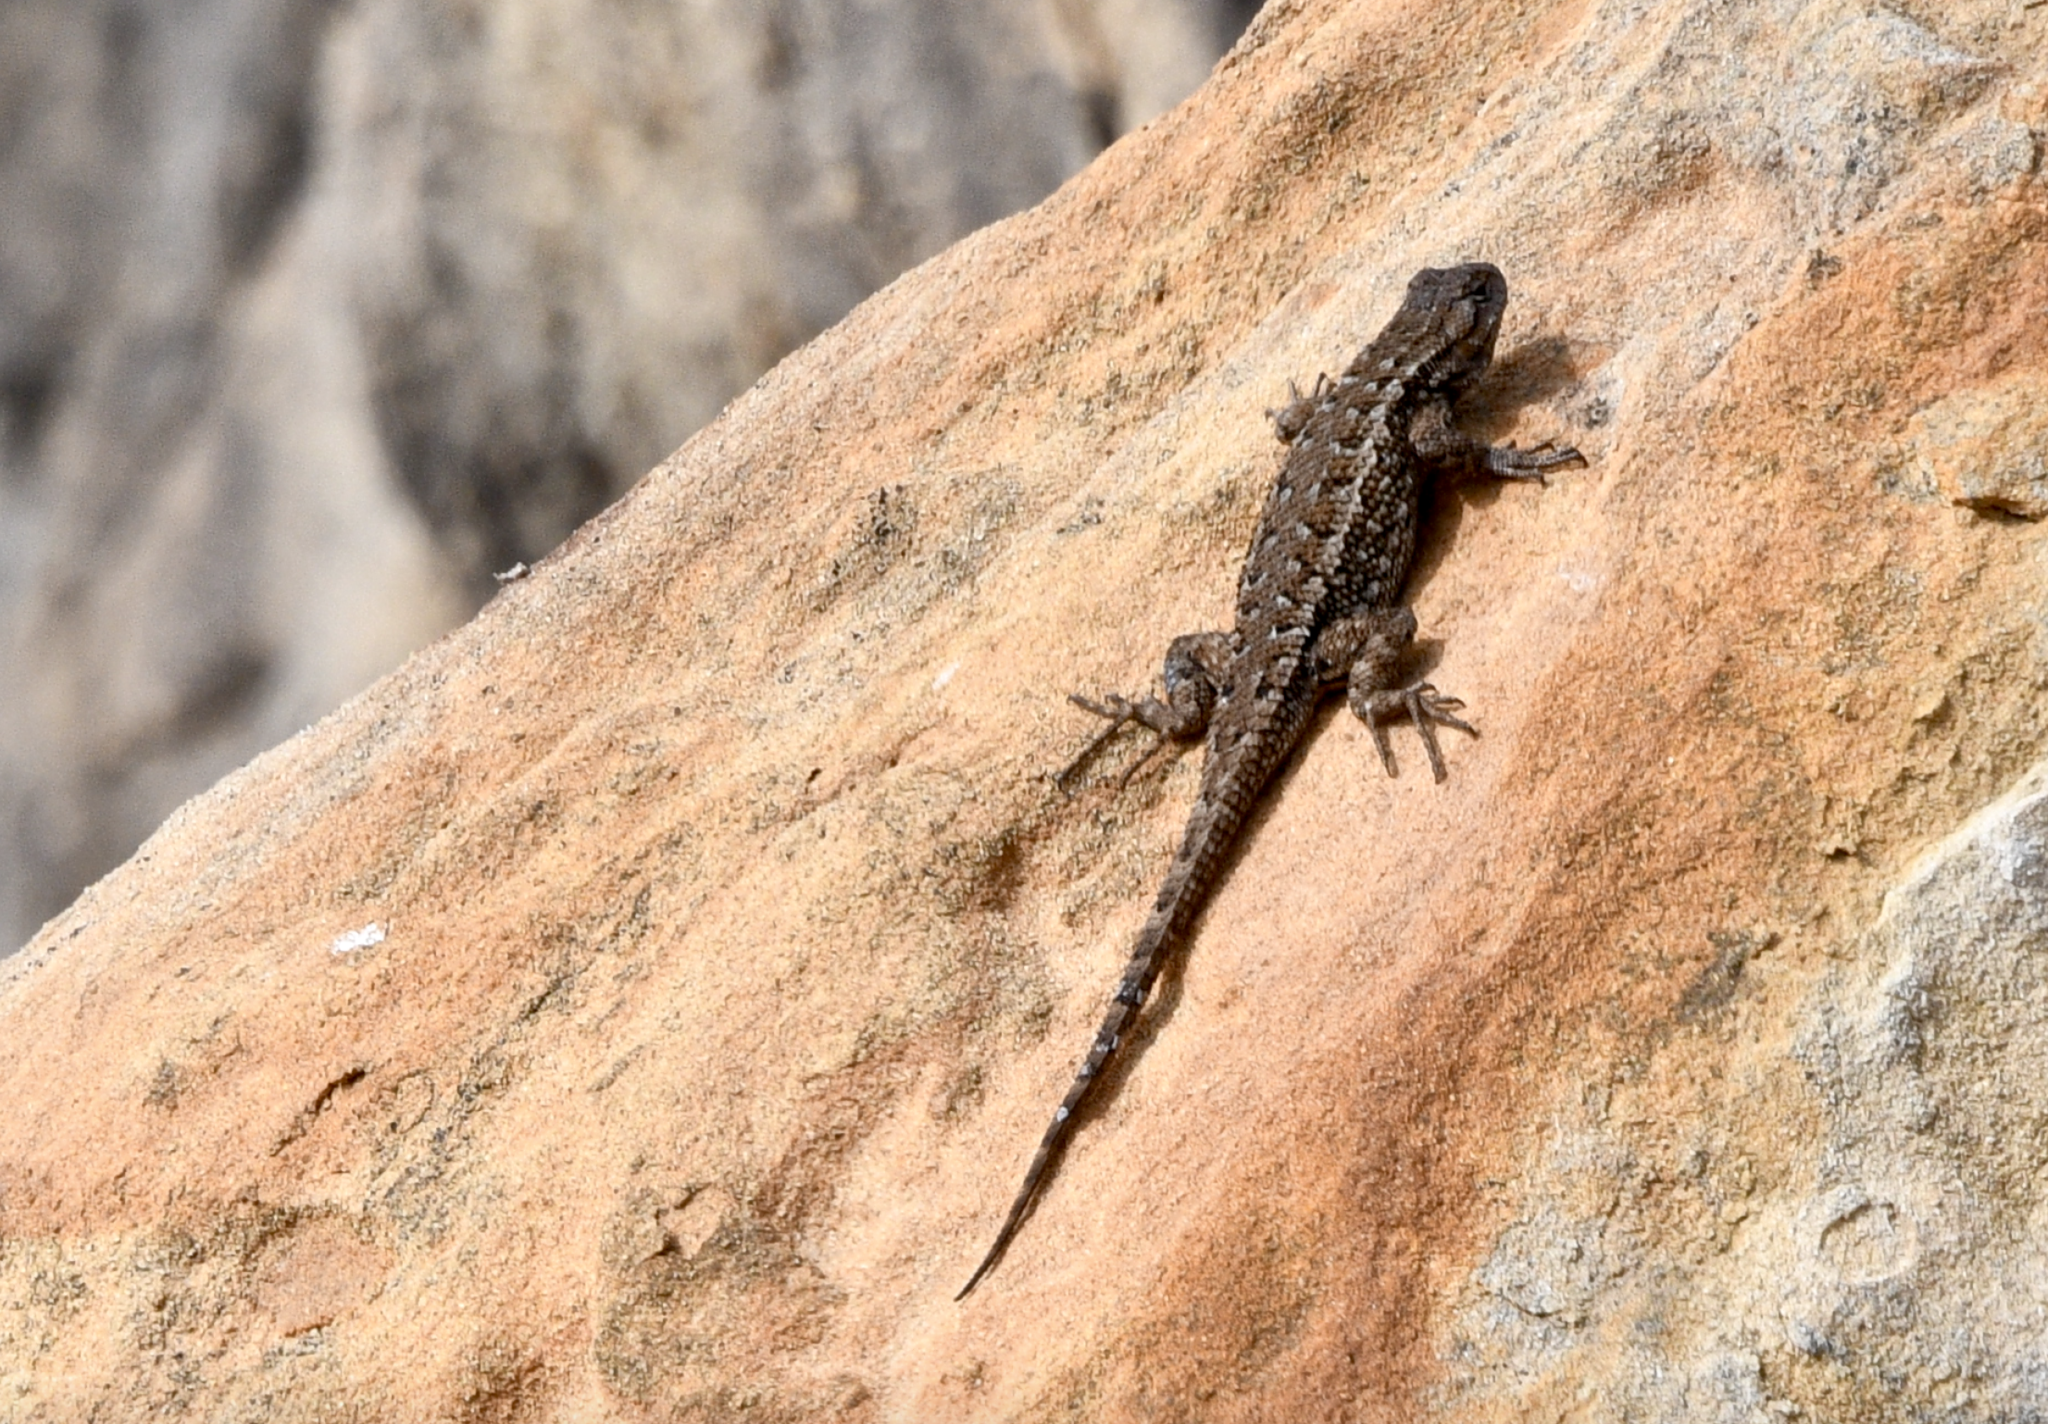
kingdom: Animalia
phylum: Chordata
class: Squamata
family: Phrynosomatidae
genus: Sceloporus
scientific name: Sceloporus occidentalis
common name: Western fence lizard
